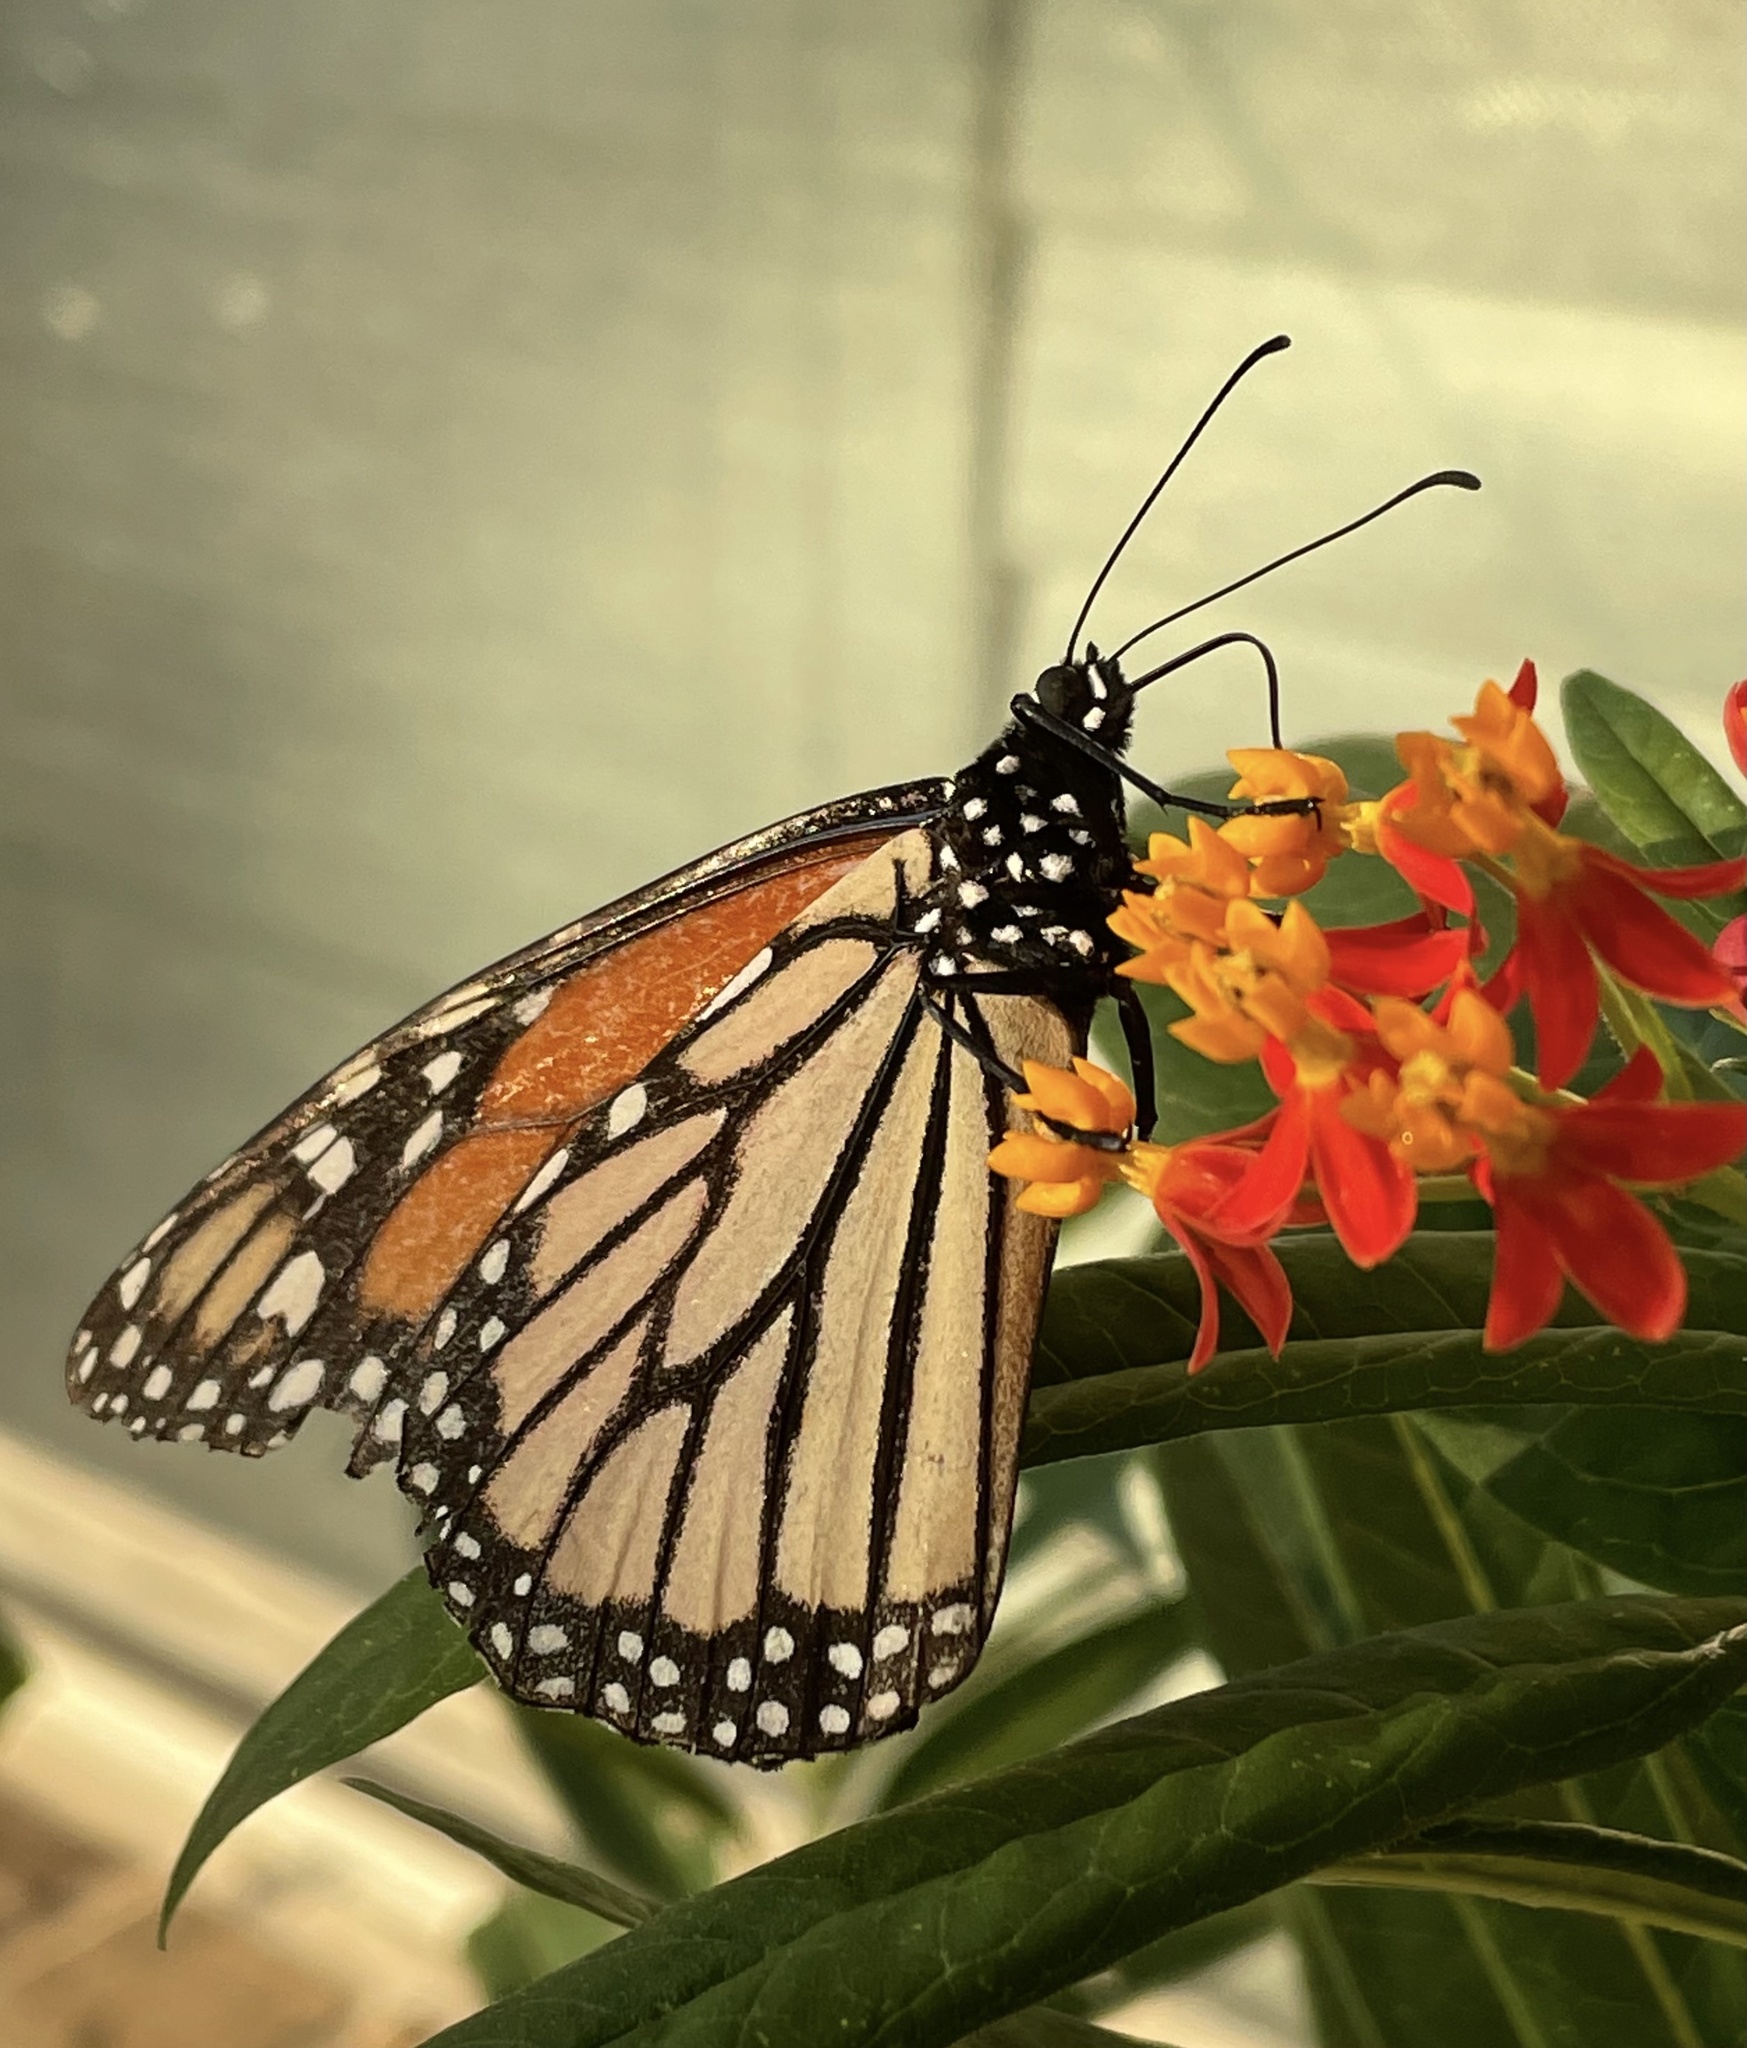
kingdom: Animalia
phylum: Arthropoda
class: Insecta
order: Lepidoptera
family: Nymphalidae
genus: Danaus
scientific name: Danaus plexippus
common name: Monarch
